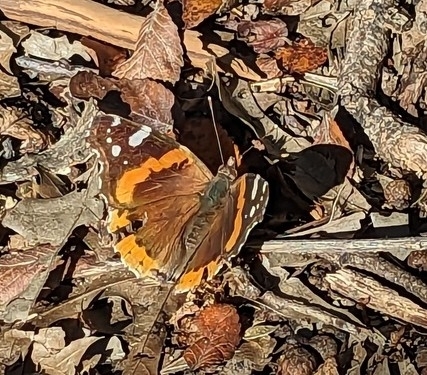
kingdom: Animalia
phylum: Arthropoda
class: Insecta
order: Lepidoptera
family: Nymphalidae
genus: Vanessa
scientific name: Vanessa atalanta
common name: Red admiral
